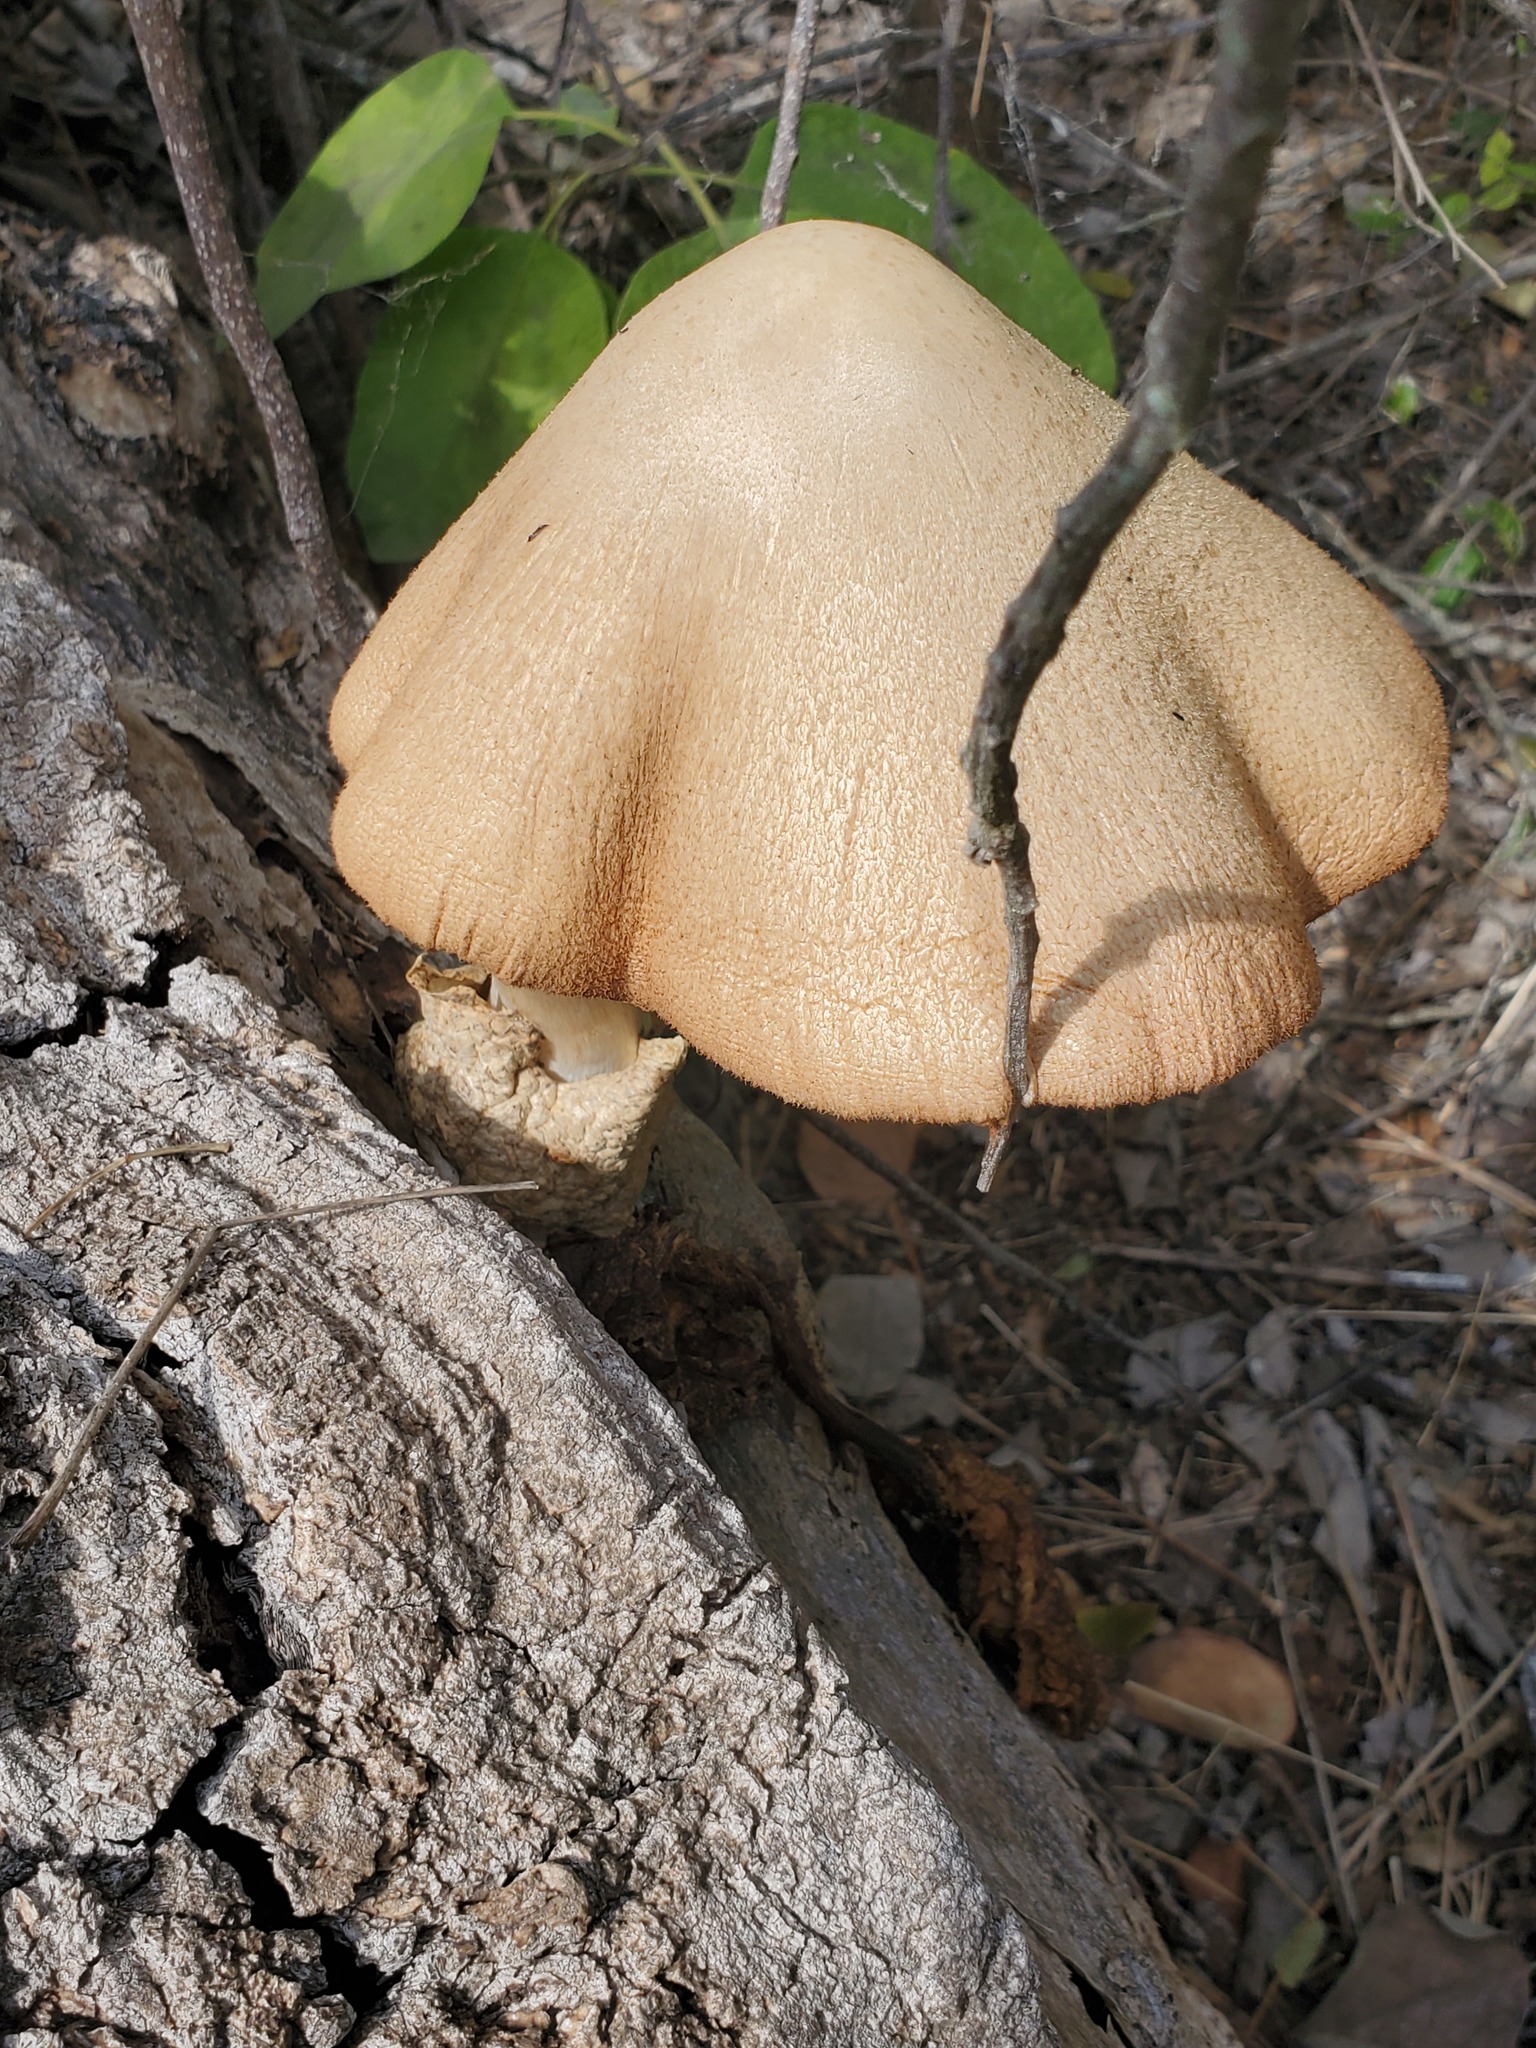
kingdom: Fungi
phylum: Basidiomycota
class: Agaricomycetes
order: Agaricales
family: Pluteaceae
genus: Volvariella
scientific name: Volvariella bombycina
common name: Silky rosegill
